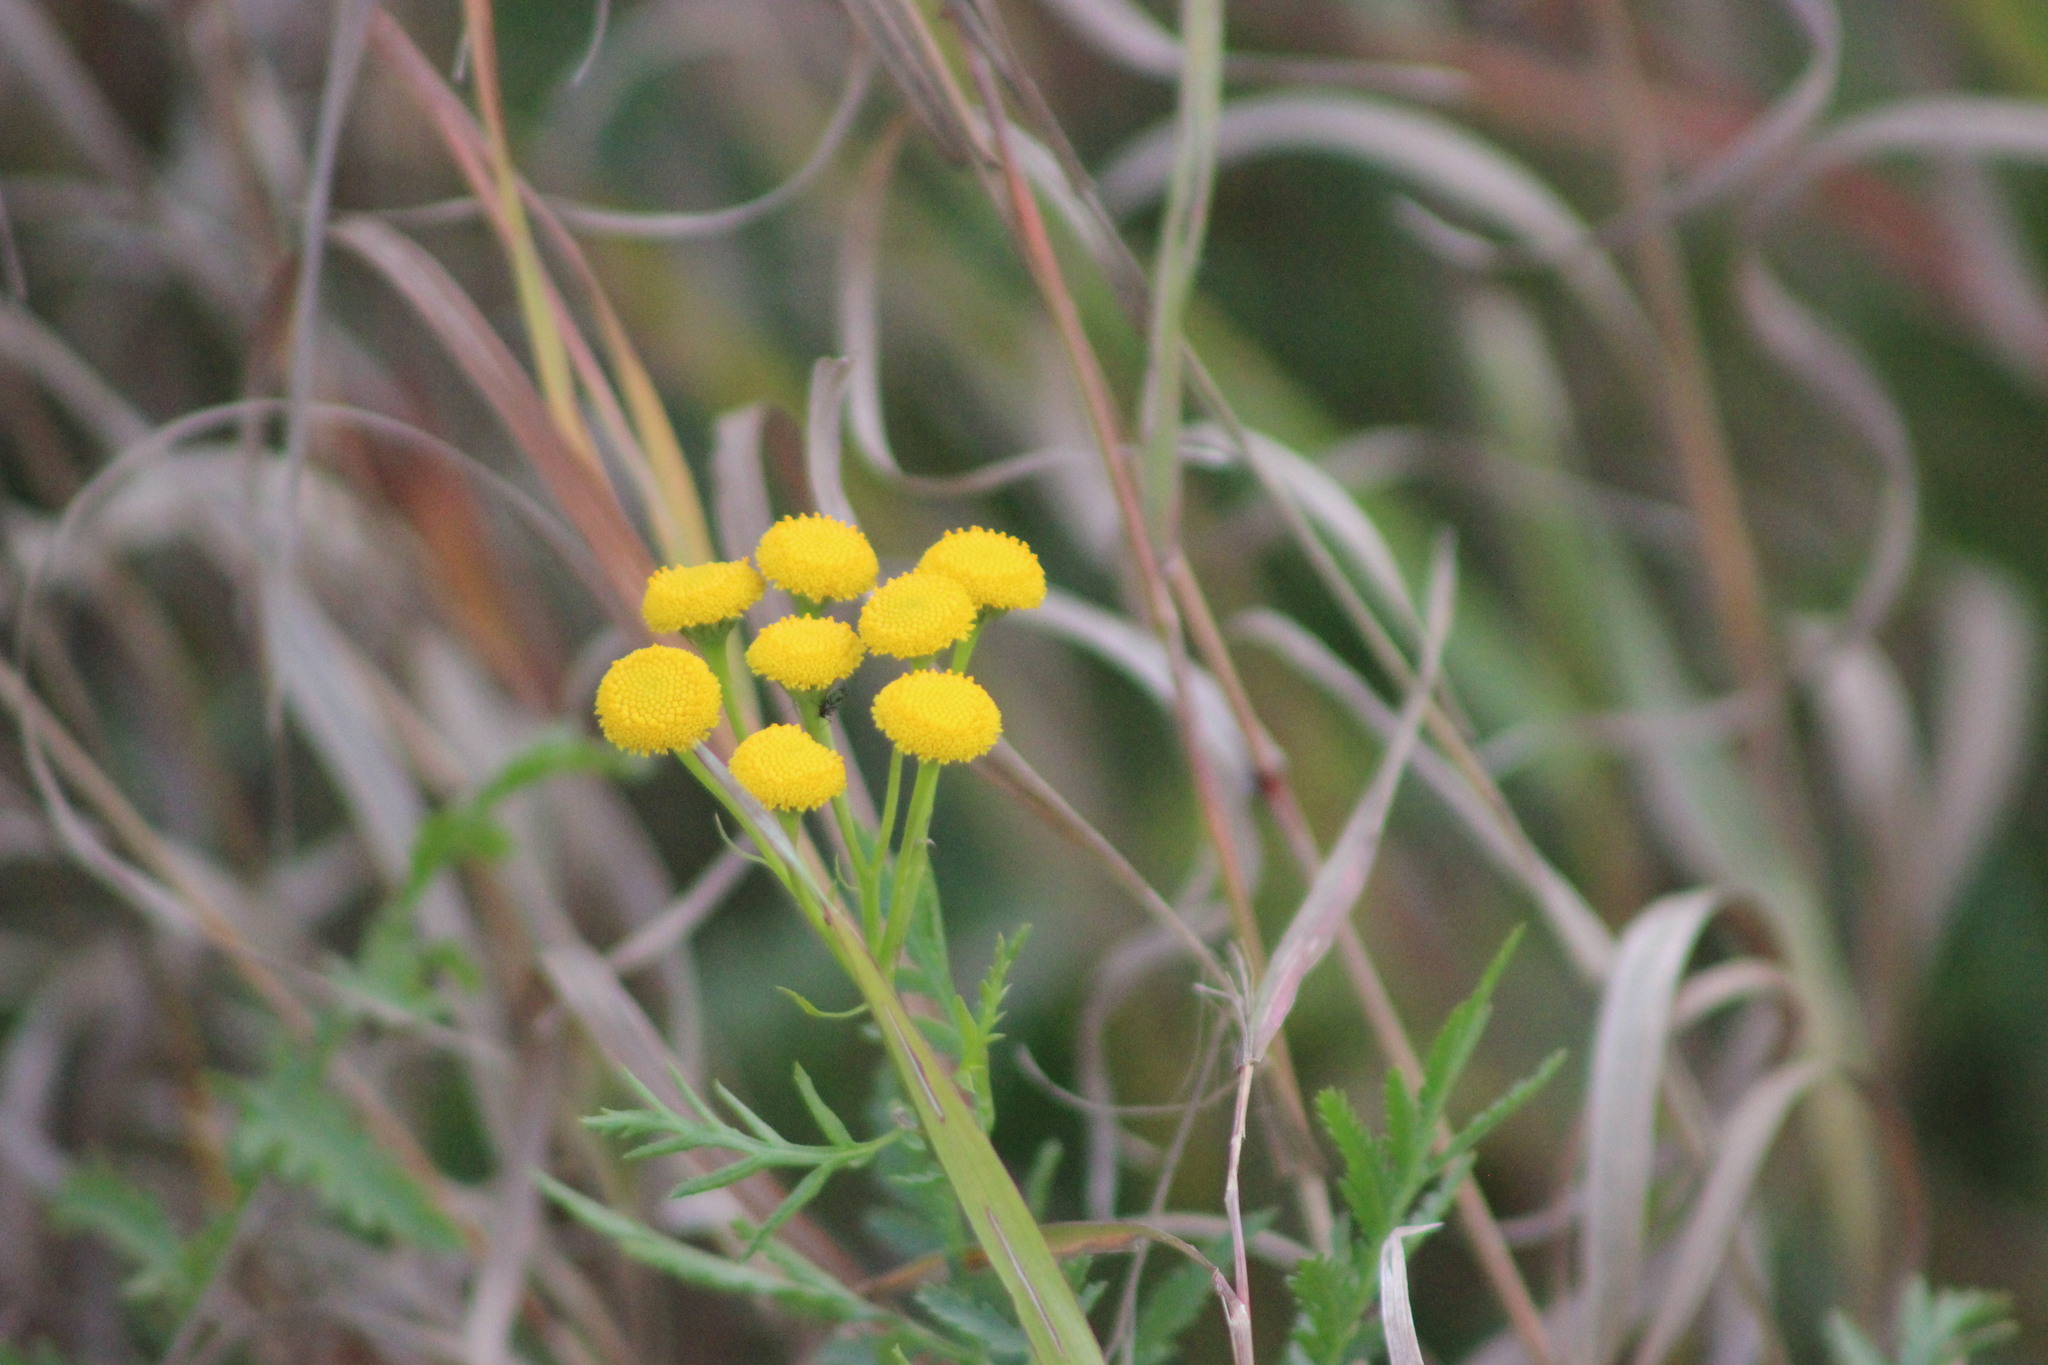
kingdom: Plantae
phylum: Tracheophyta
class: Magnoliopsida
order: Asterales
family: Asteraceae
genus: Tanacetum
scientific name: Tanacetum vulgare
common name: Common tansy
